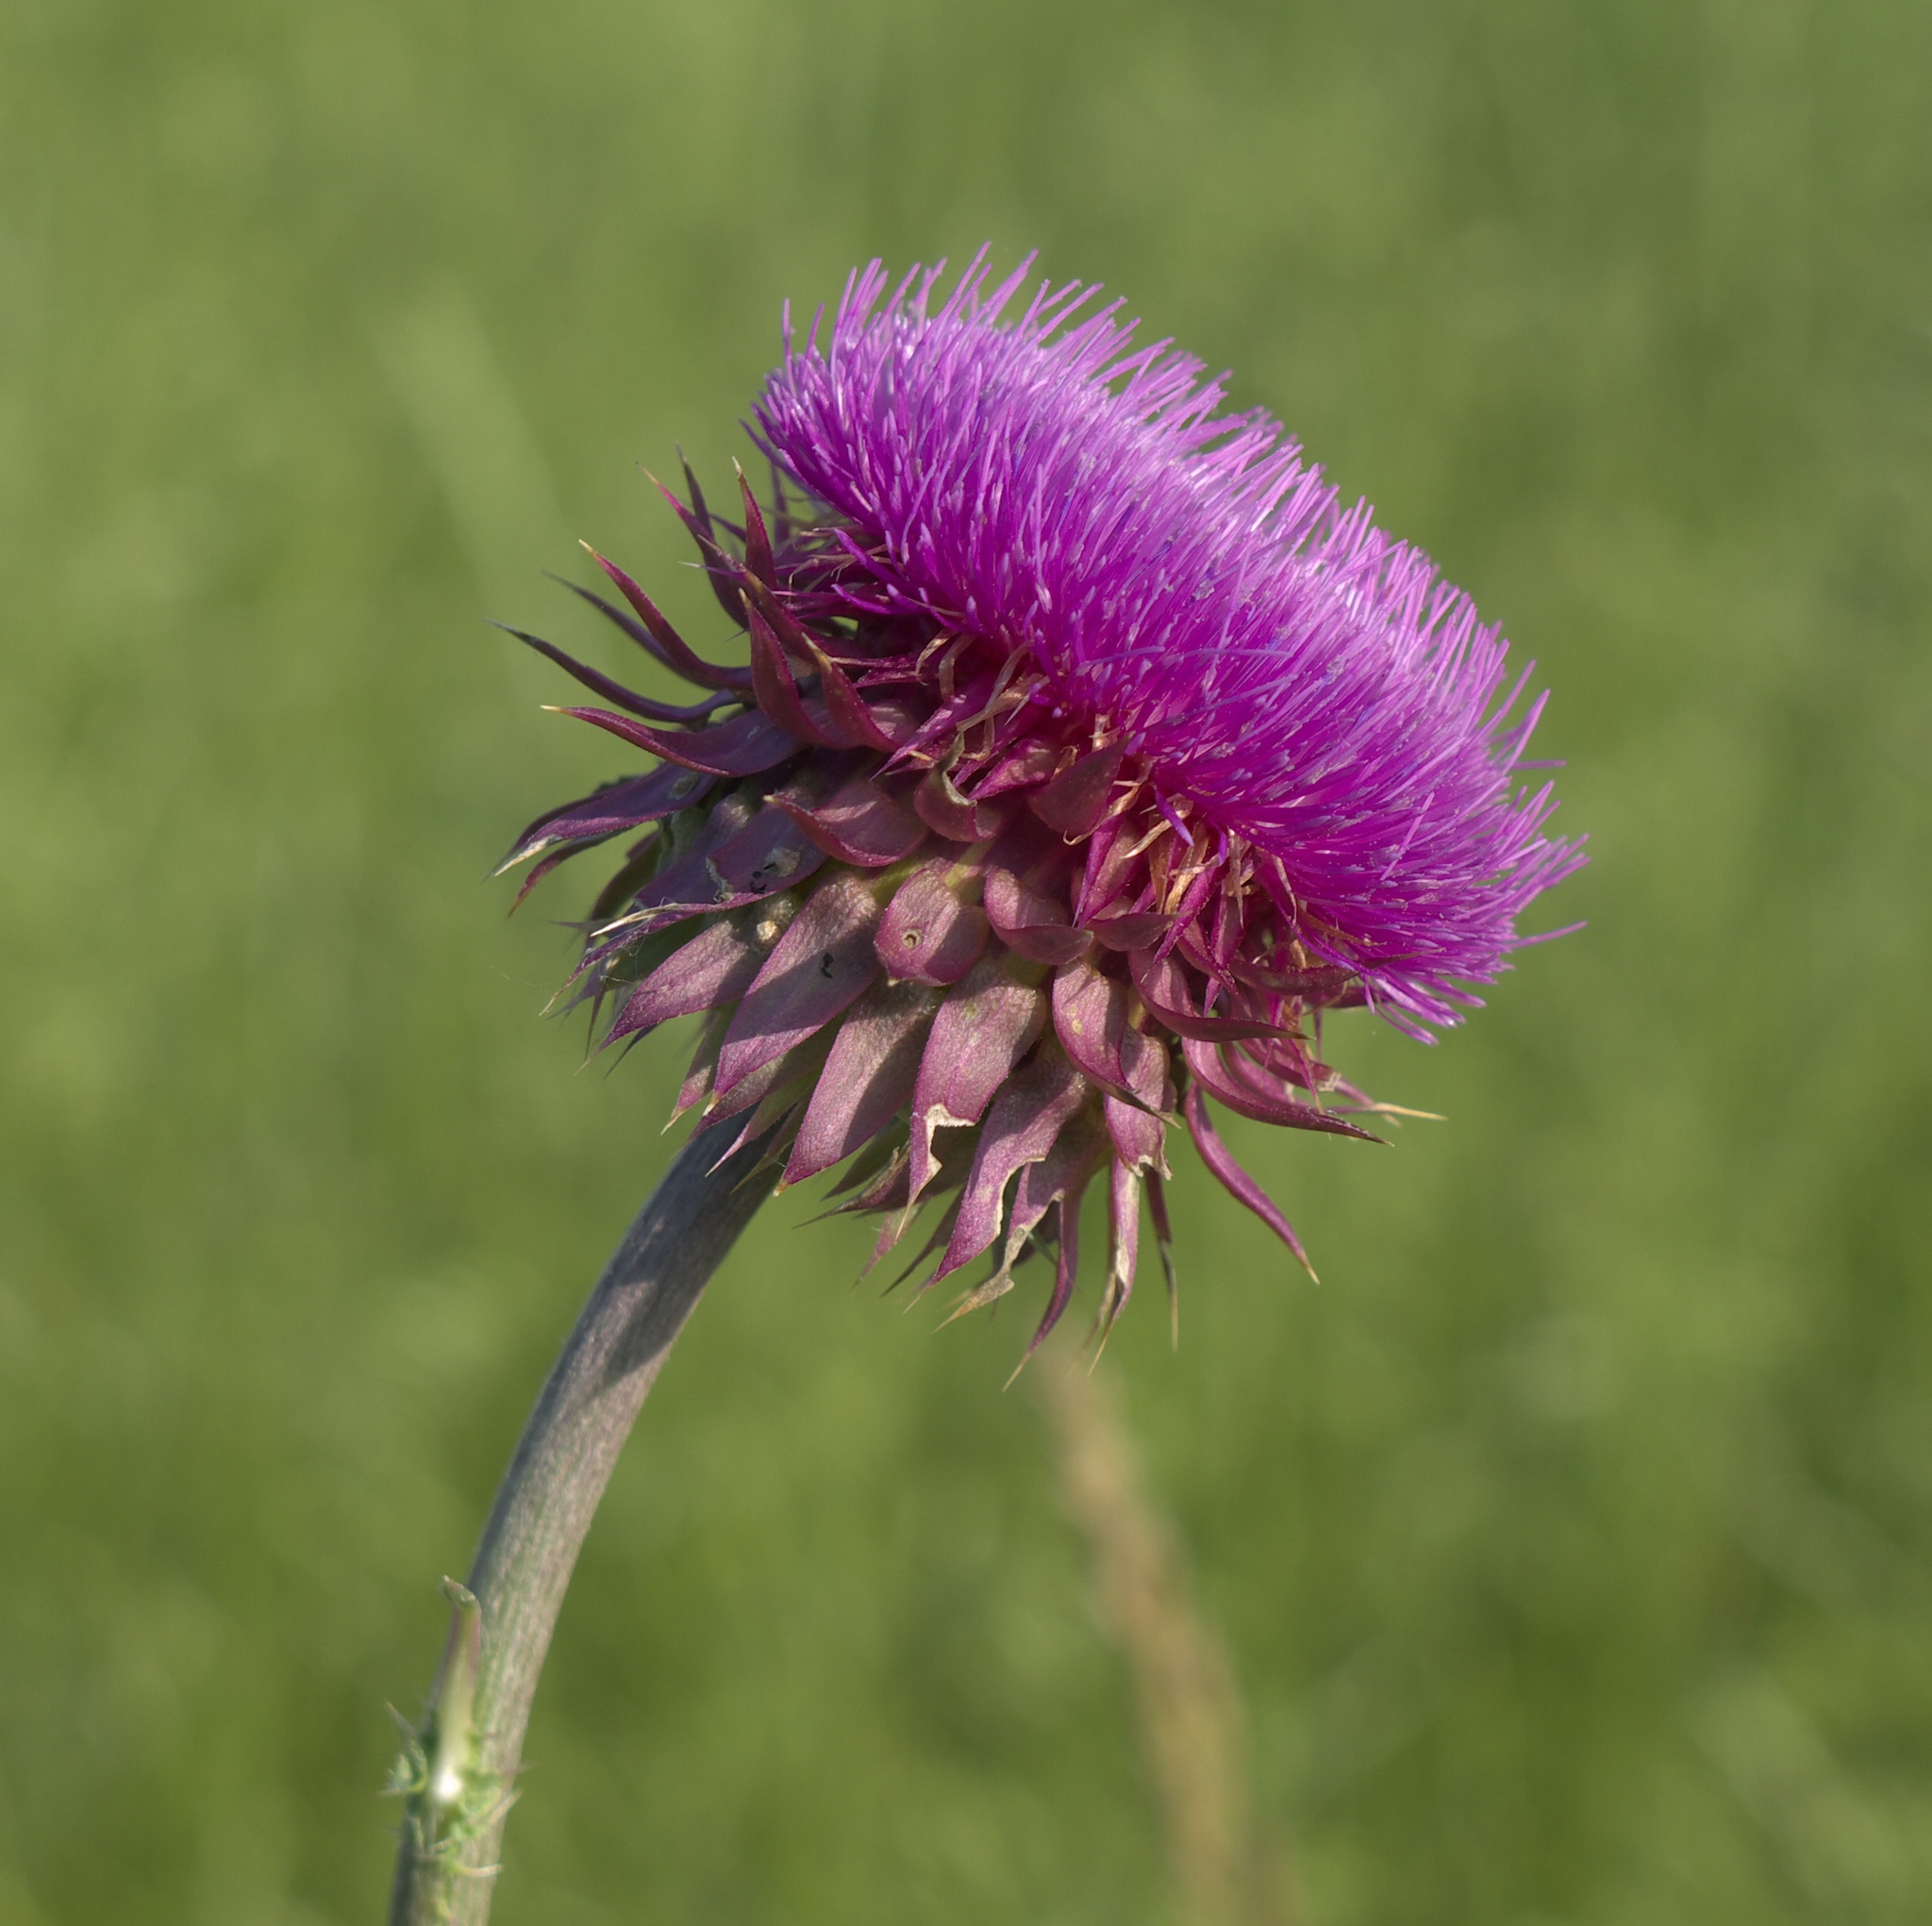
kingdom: Plantae
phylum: Tracheophyta
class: Magnoliopsida
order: Asterales
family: Asteraceae
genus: Carduus
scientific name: Carduus nutans
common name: Musk thistle
